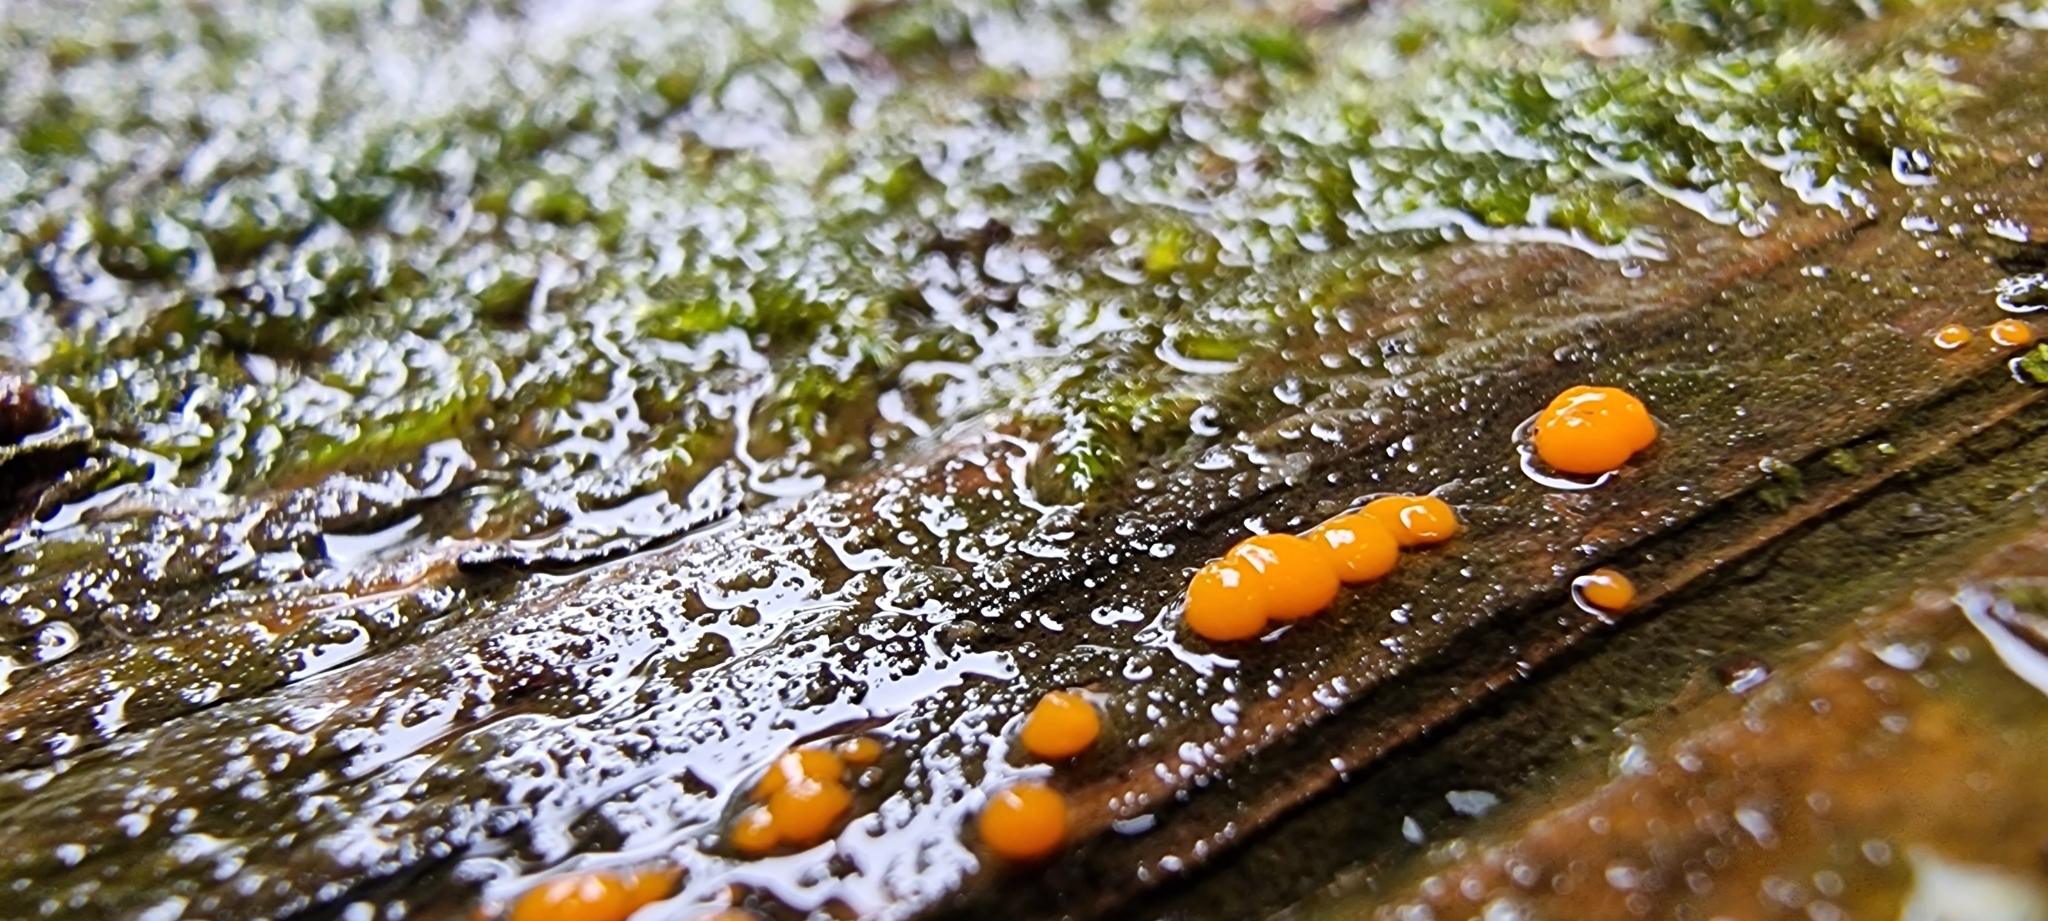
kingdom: Fungi
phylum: Basidiomycota
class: Dacrymycetes
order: Dacrymycetales
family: Dacrymycetaceae
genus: Dacrymyces
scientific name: Dacrymyces stillatus
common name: Common jelly spot
